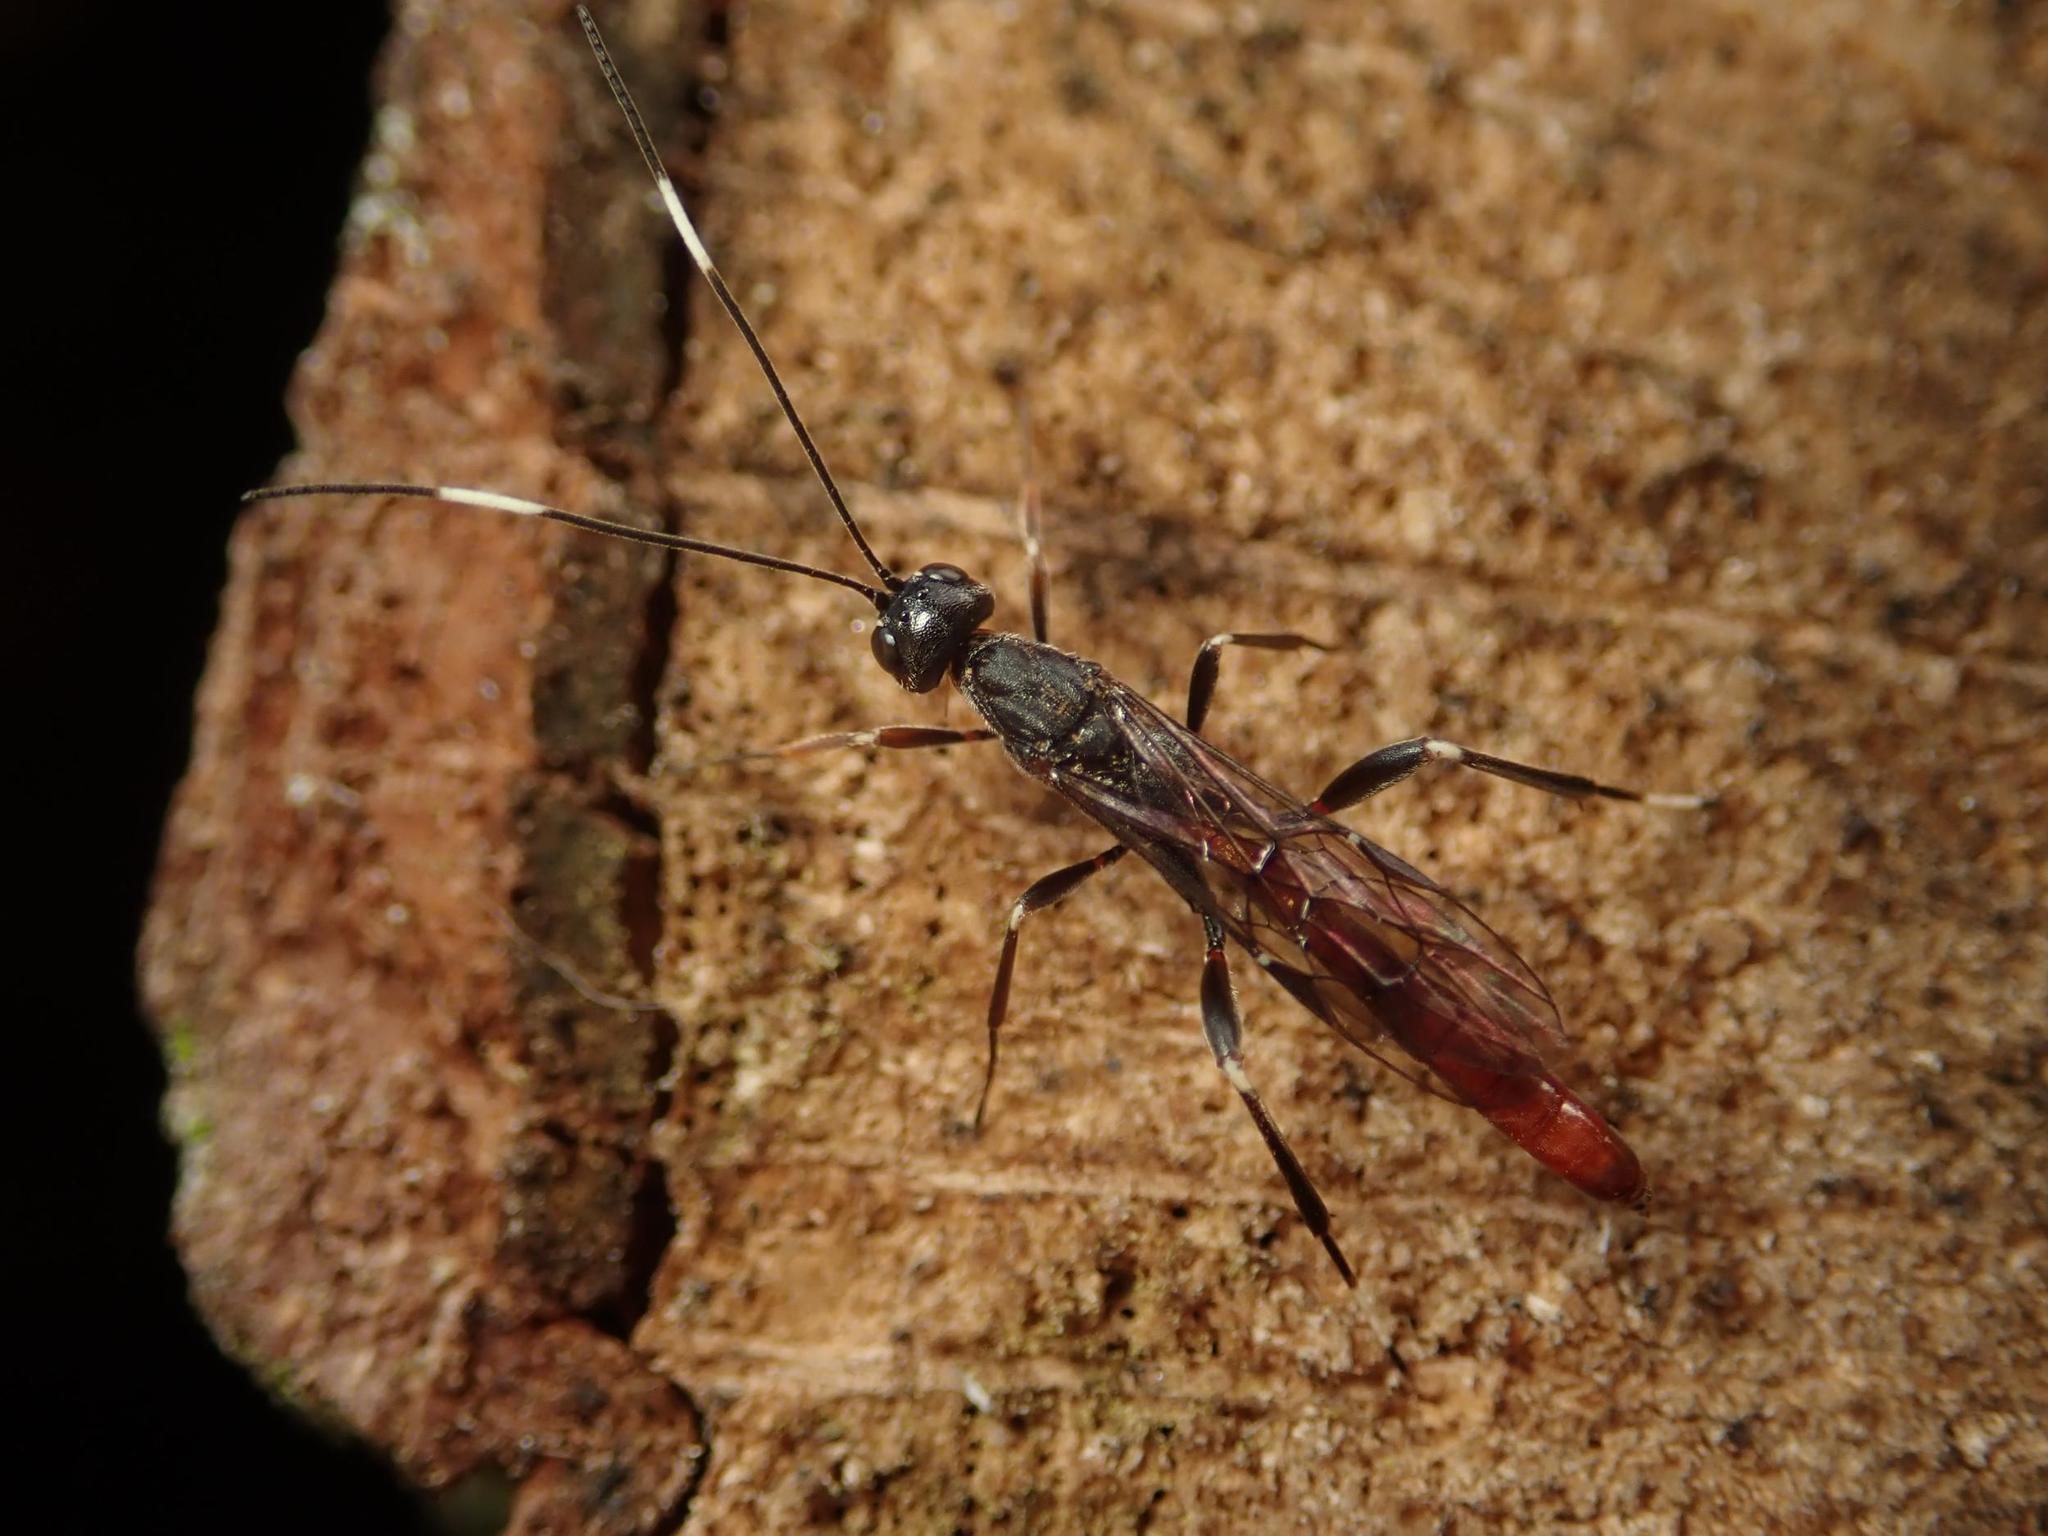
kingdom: Animalia
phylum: Arthropoda
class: Insecta
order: Hymenoptera
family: Ichneumonidae
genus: Xorides
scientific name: Xorides filiformis
